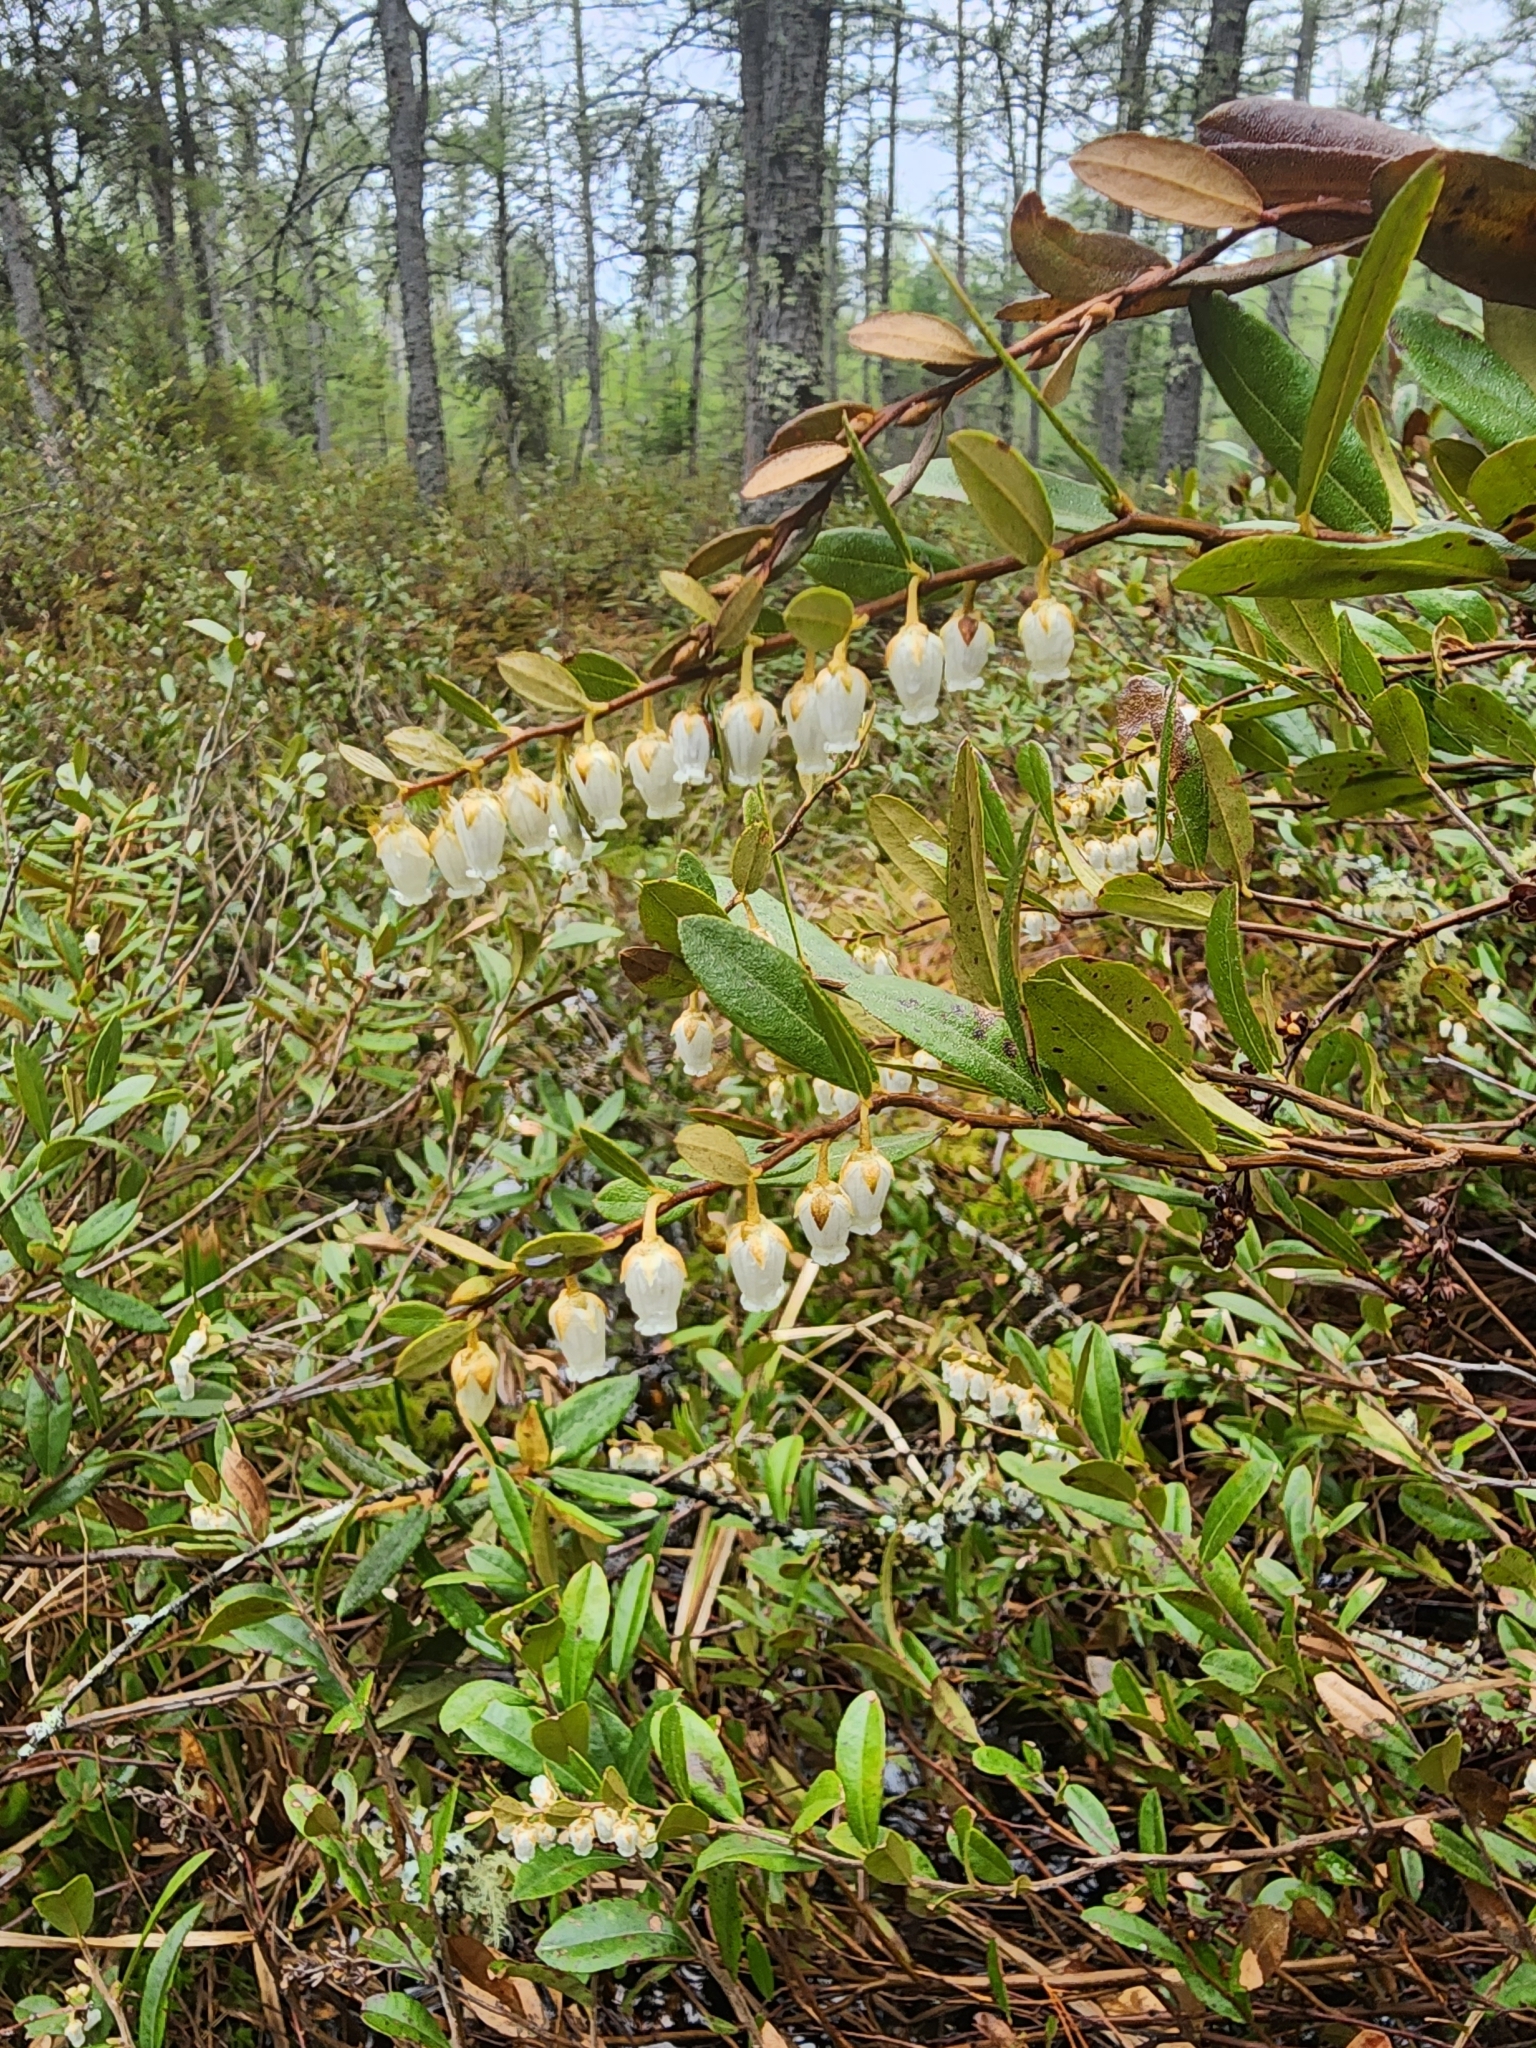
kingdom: Plantae
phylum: Tracheophyta
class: Magnoliopsida
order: Ericales
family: Ericaceae
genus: Chamaedaphne
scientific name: Chamaedaphne calyculata
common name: Leatherleaf
